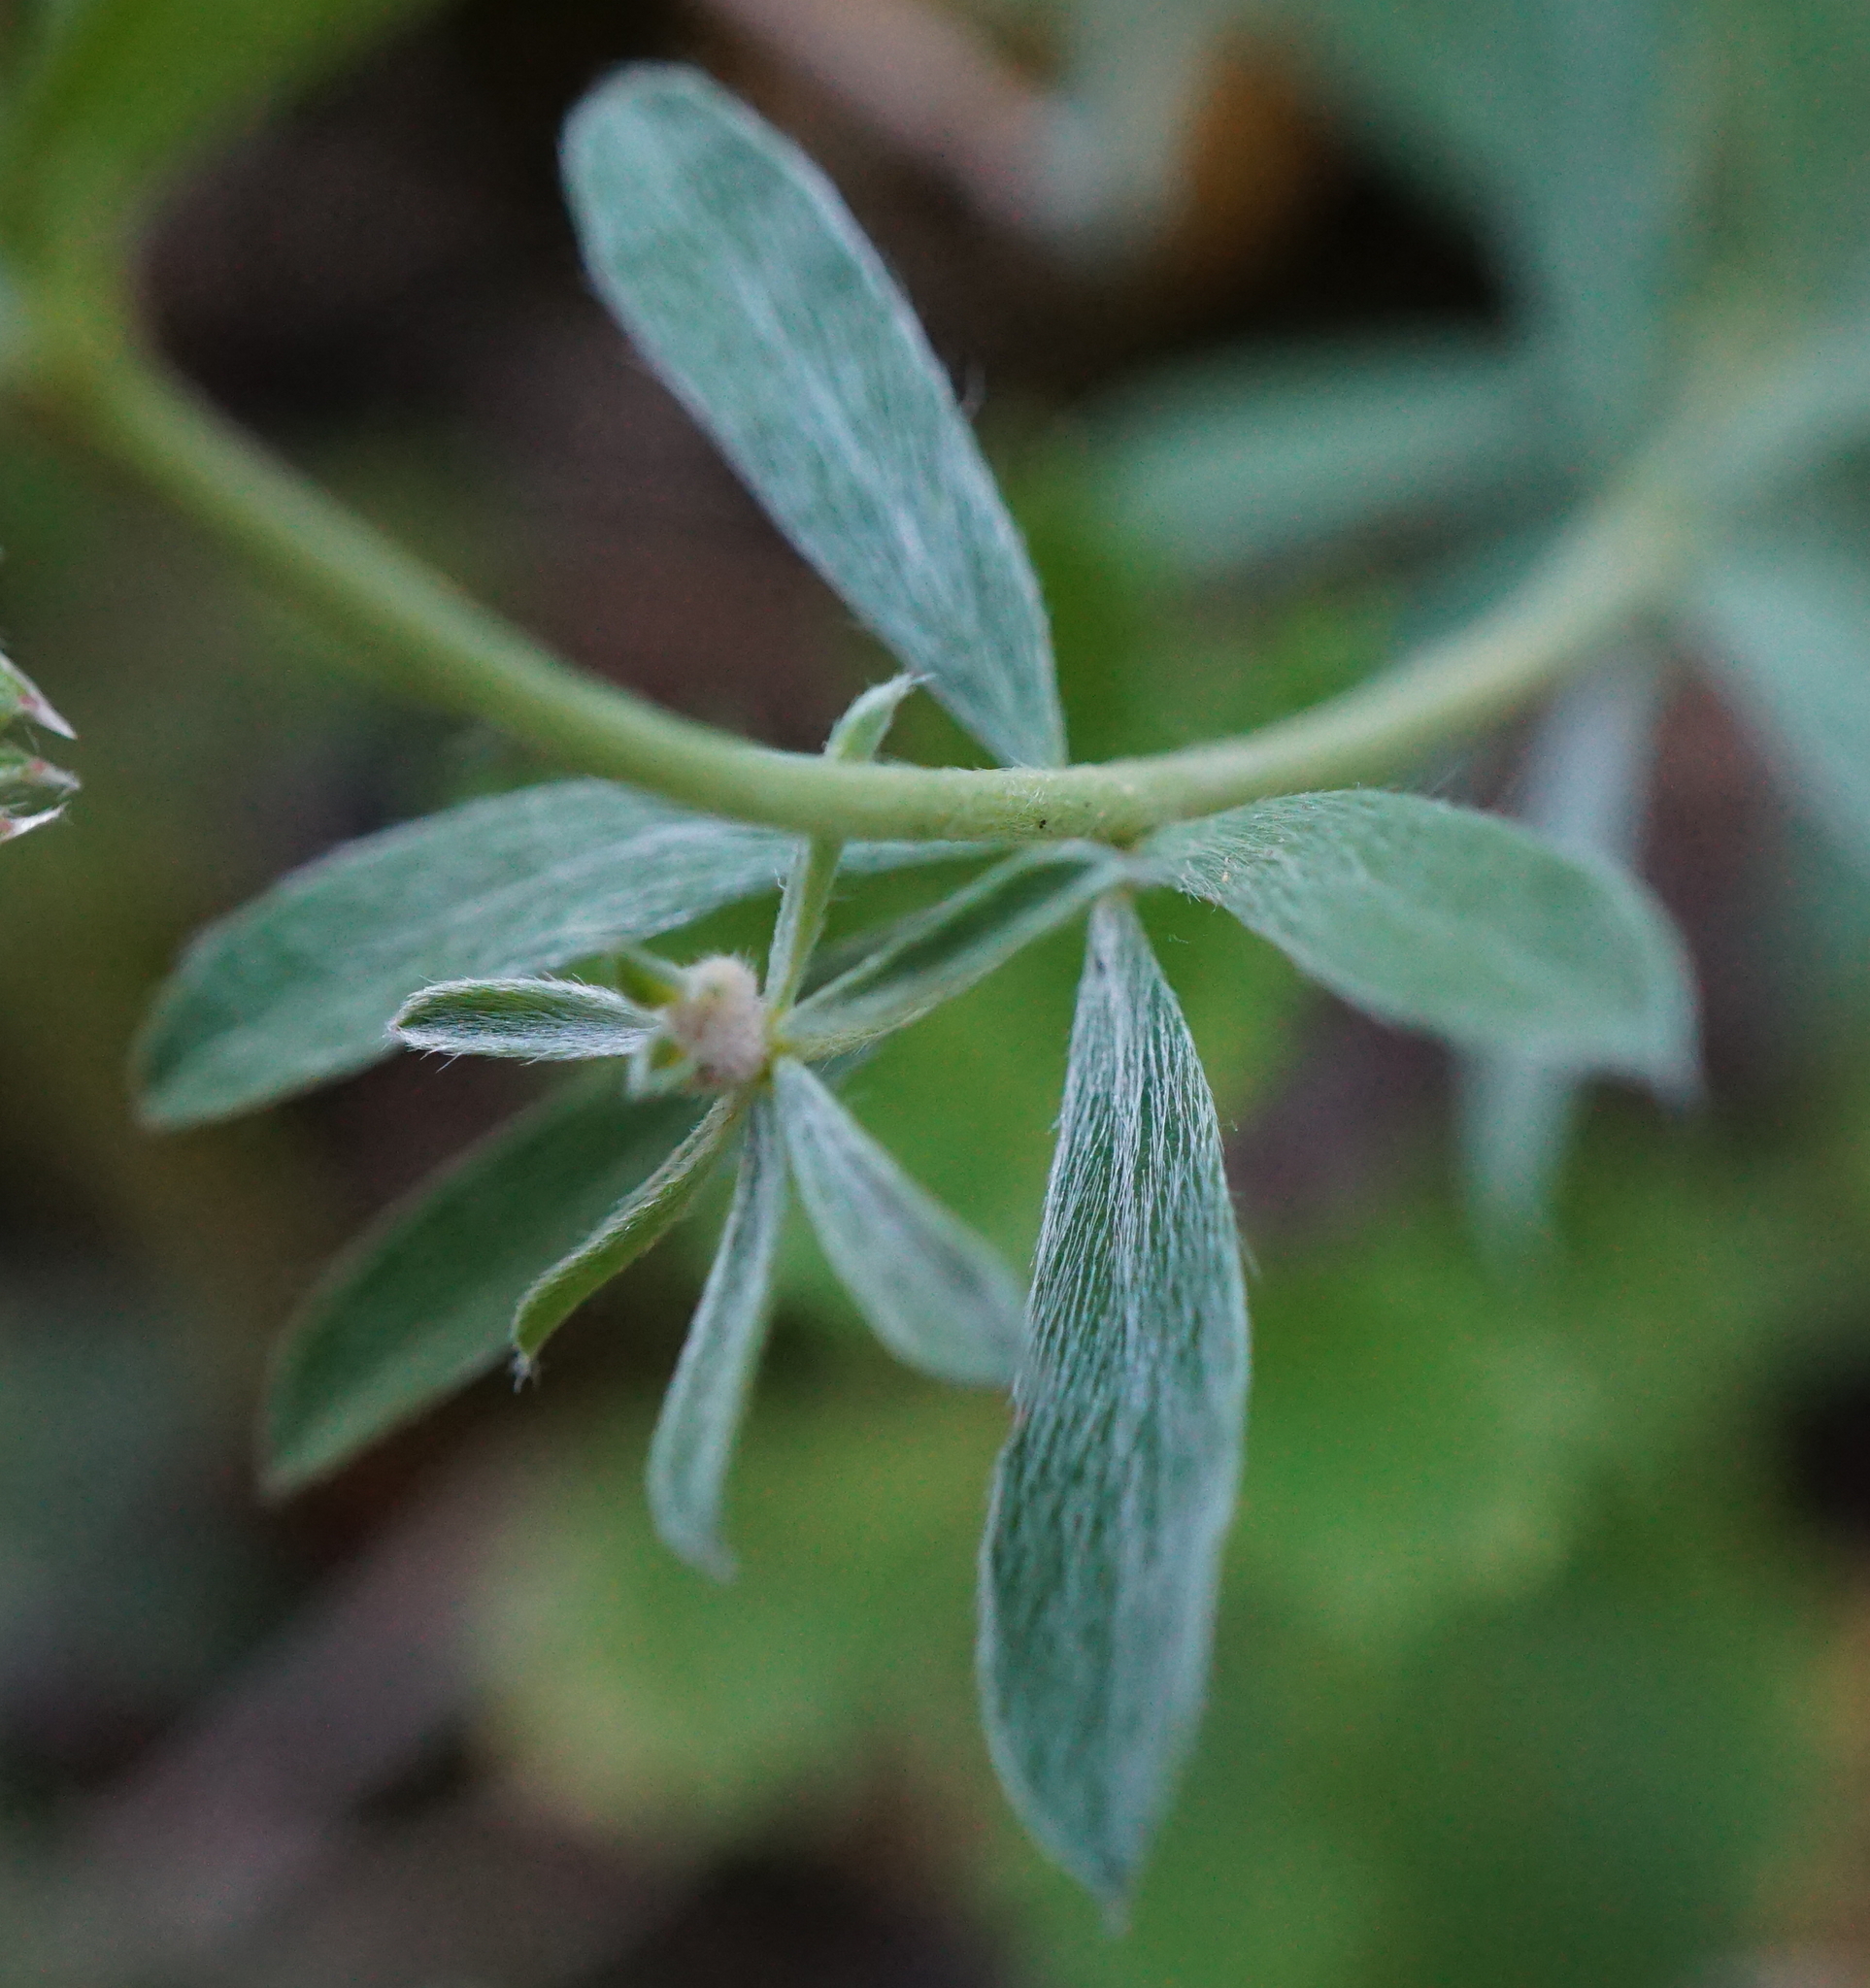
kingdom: Plantae
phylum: Tracheophyta
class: Magnoliopsida
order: Fabales
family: Fabaceae
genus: Lotus
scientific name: Lotus germanicus
